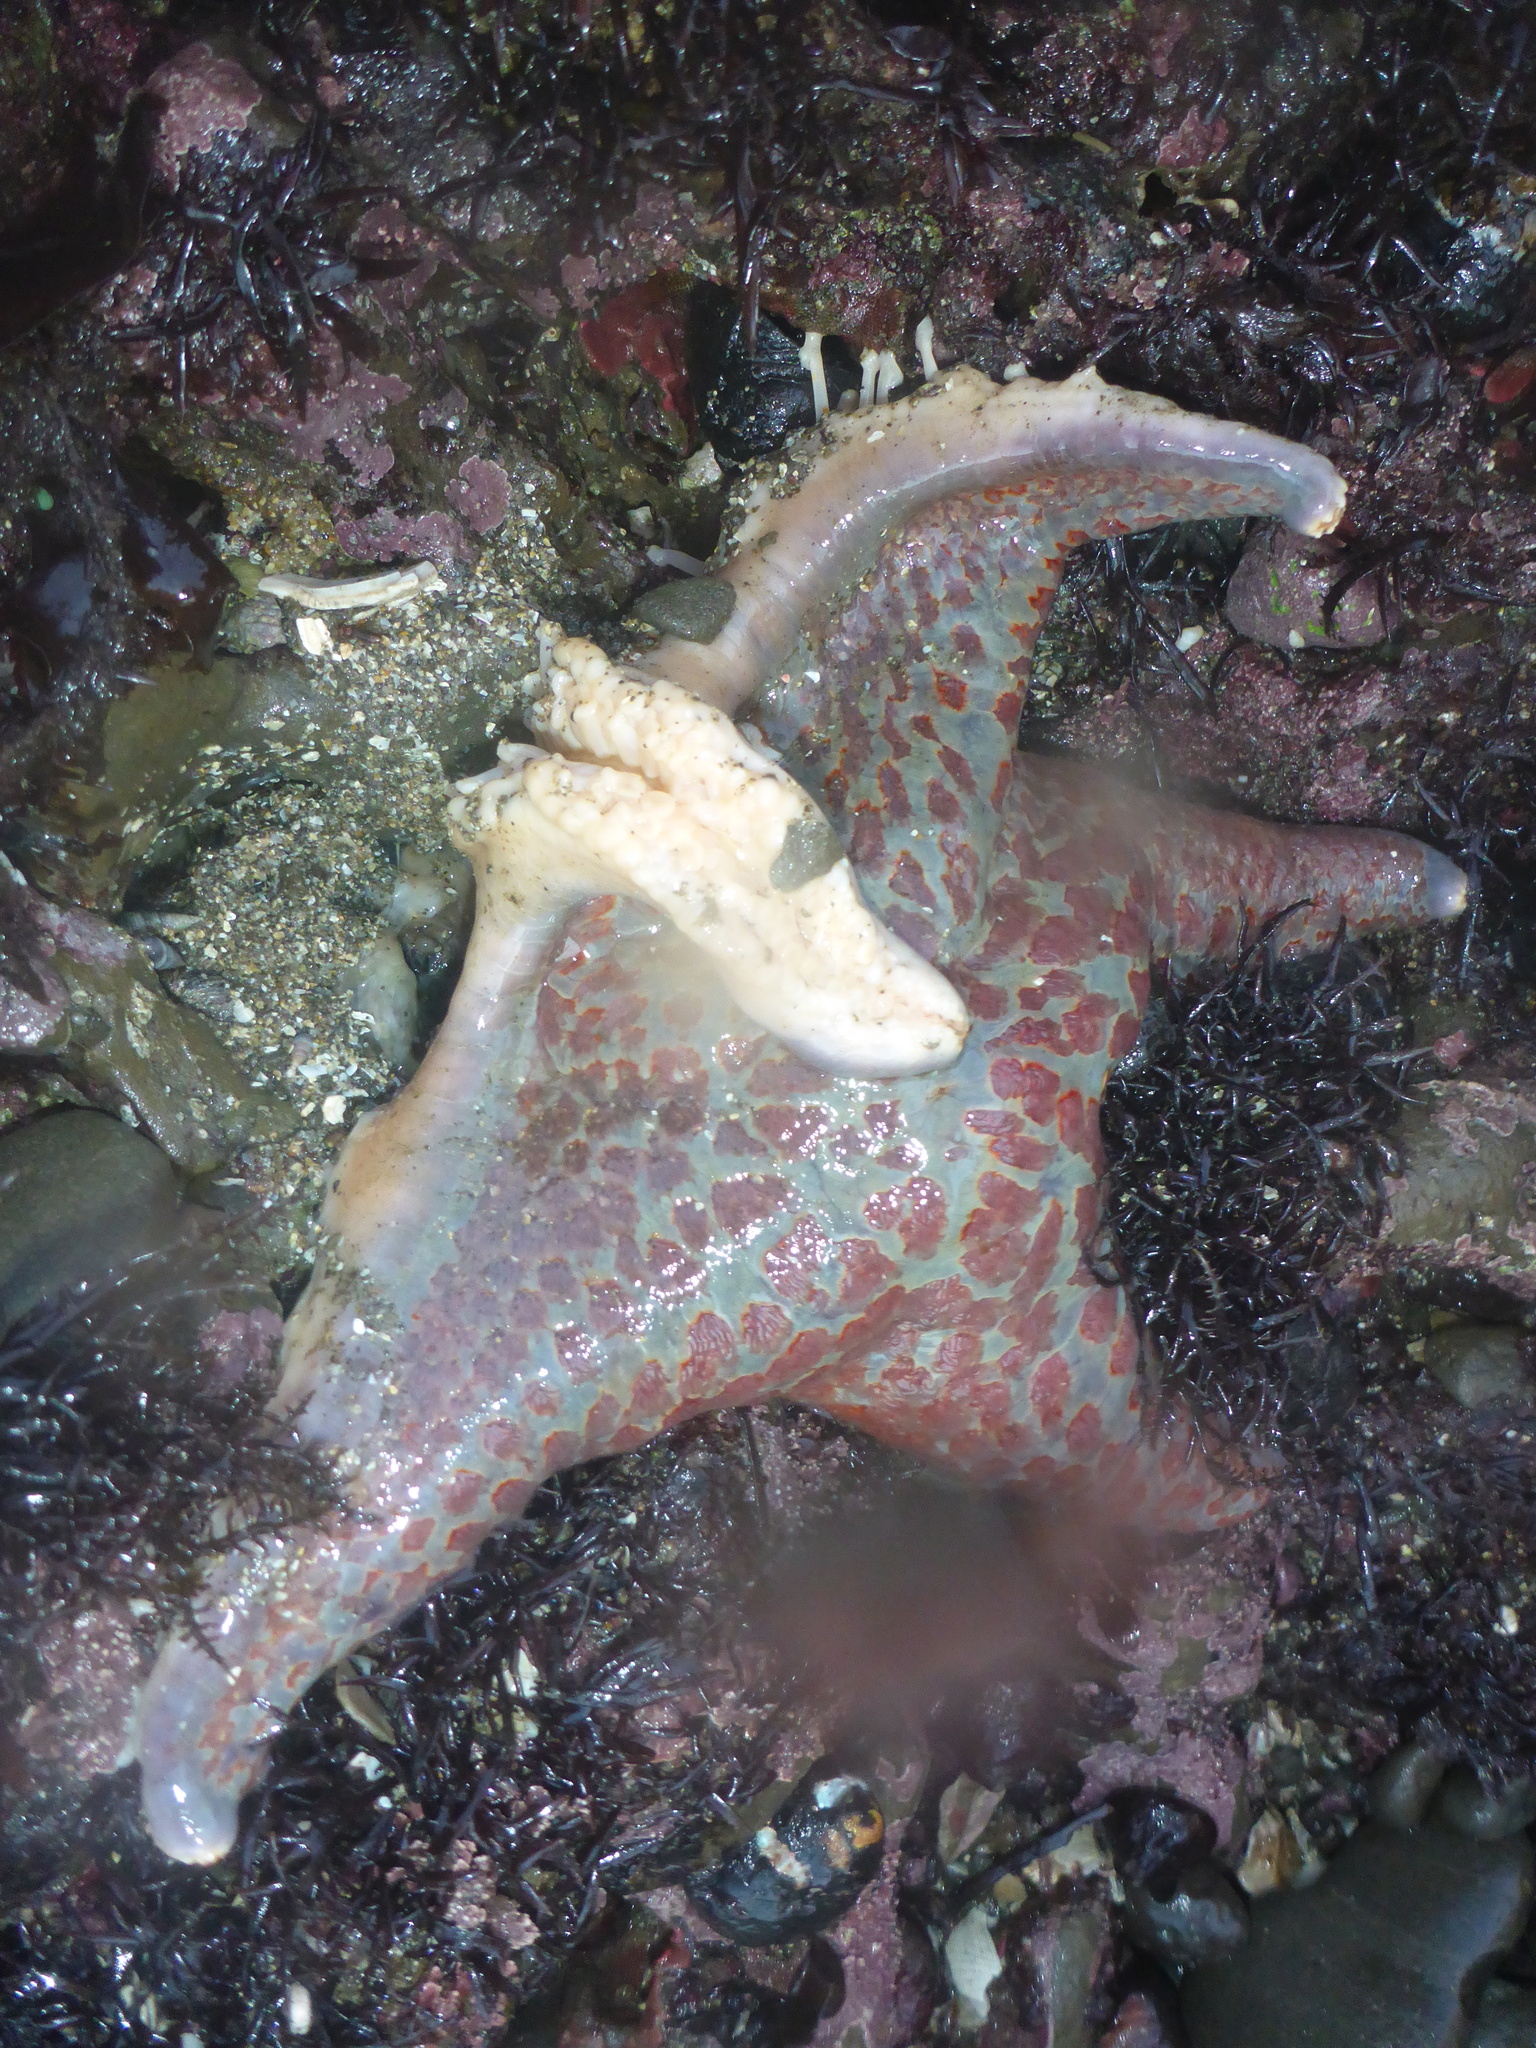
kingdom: Animalia
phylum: Echinodermata
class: Asteroidea
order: Valvatida
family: Asteropseidae
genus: Dermasterias
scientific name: Dermasterias imbricata
